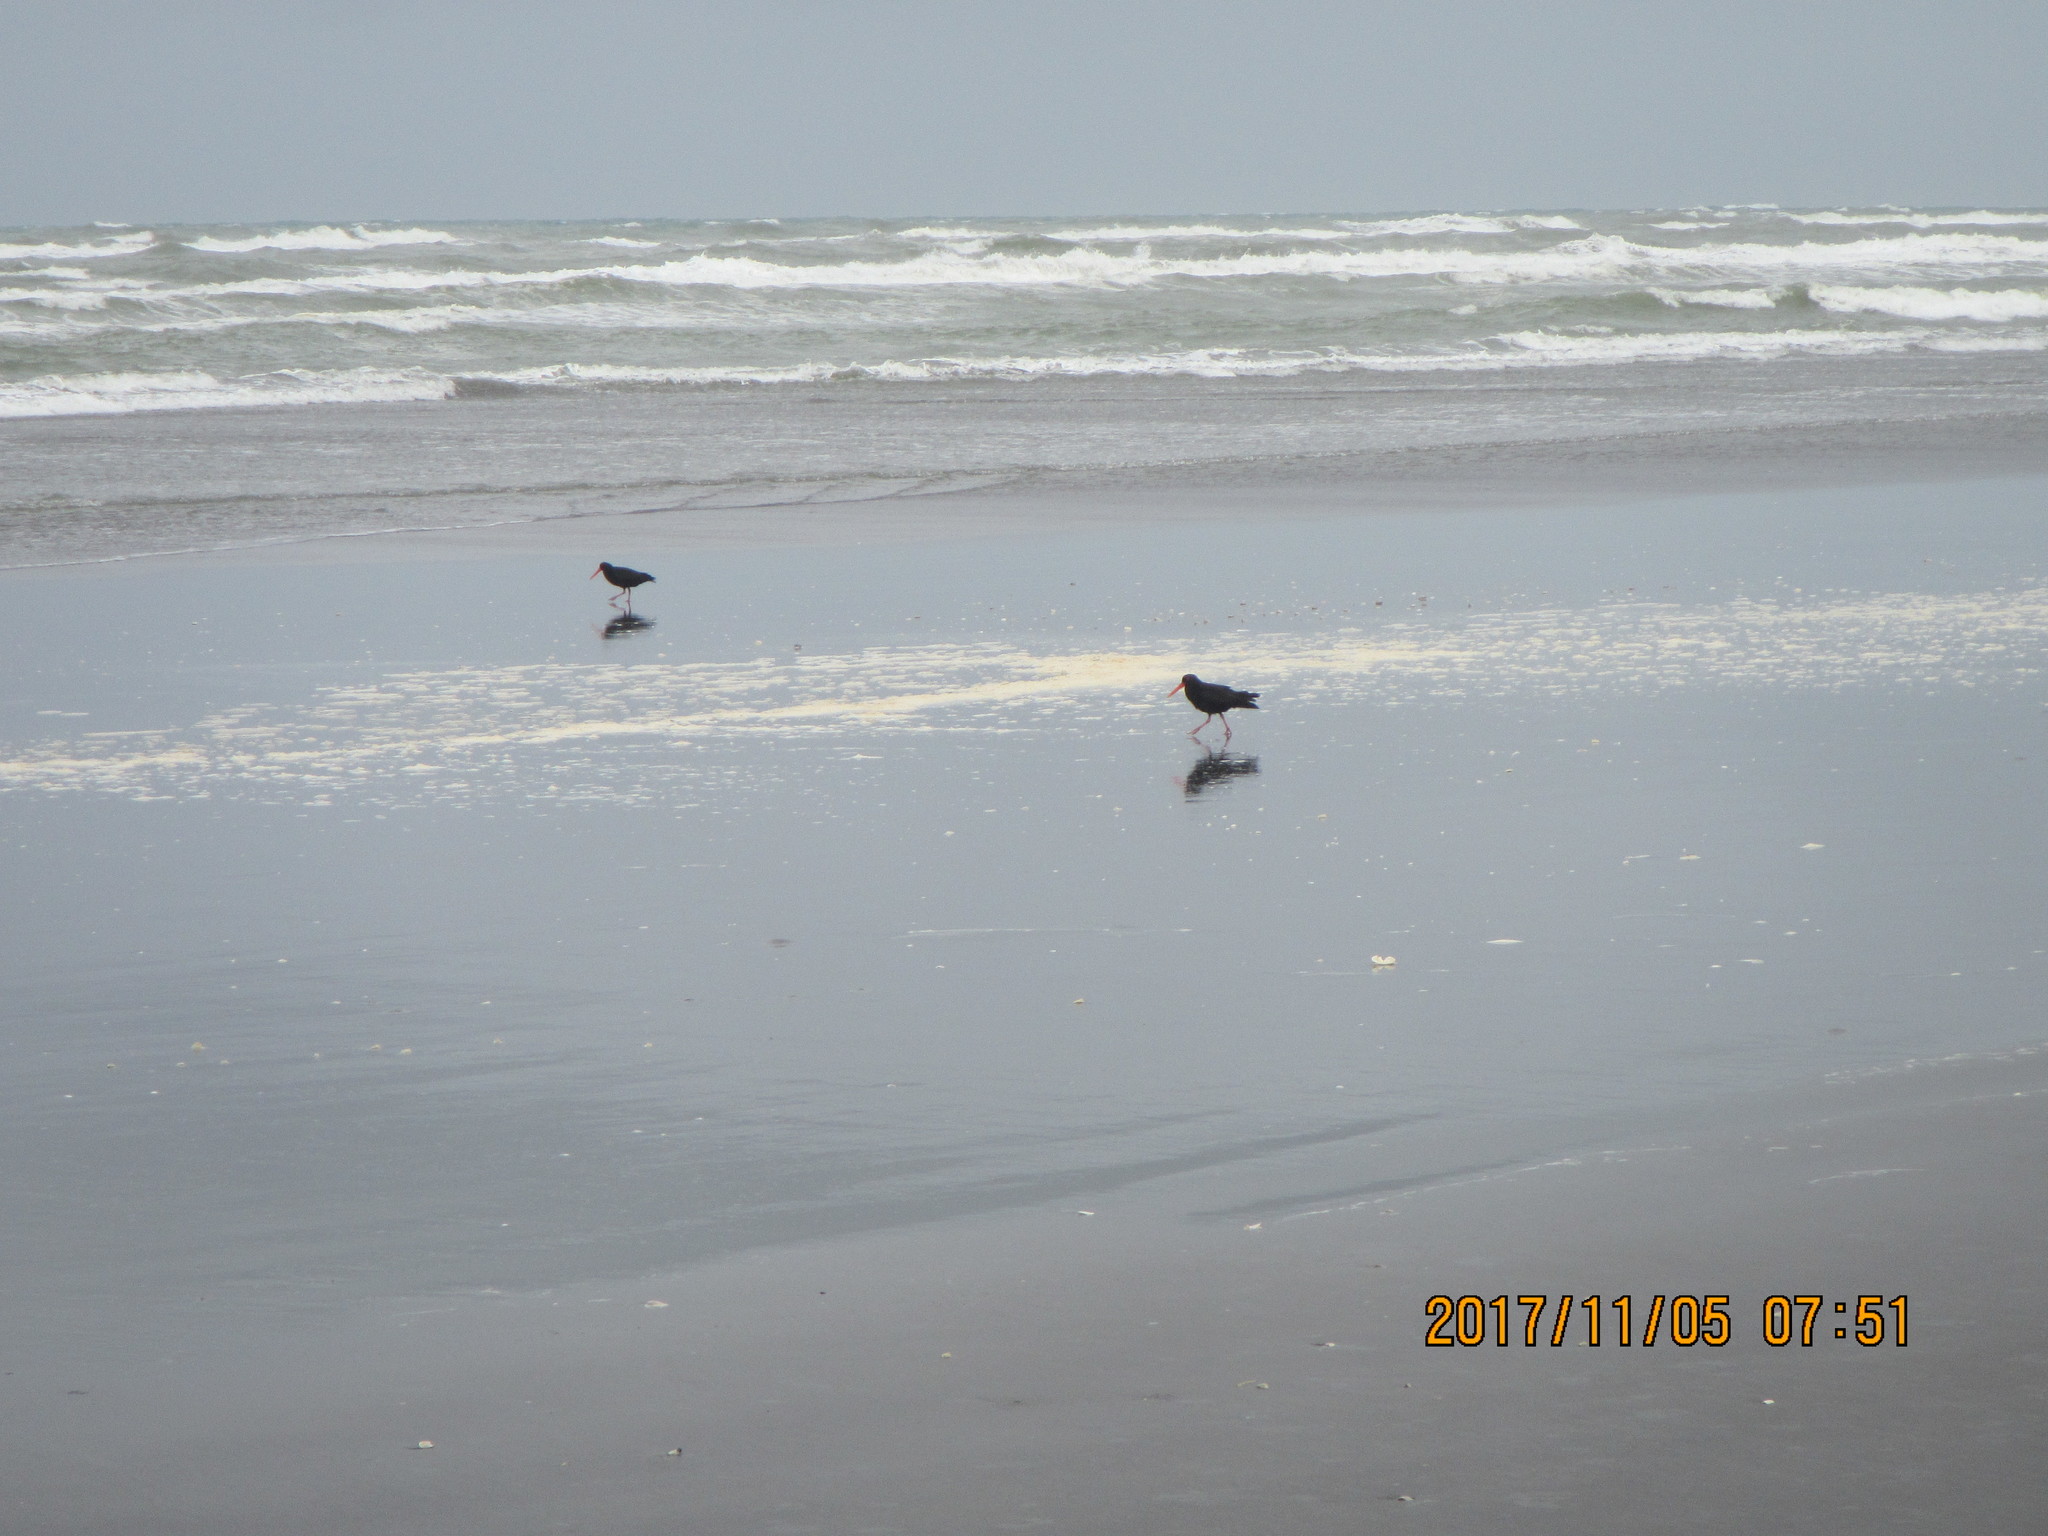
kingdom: Animalia
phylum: Chordata
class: Aves
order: Charadriiformes
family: Haematopodidae
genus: Haematopus
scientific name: Haematopus unicolor
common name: Variable oystercatcher
